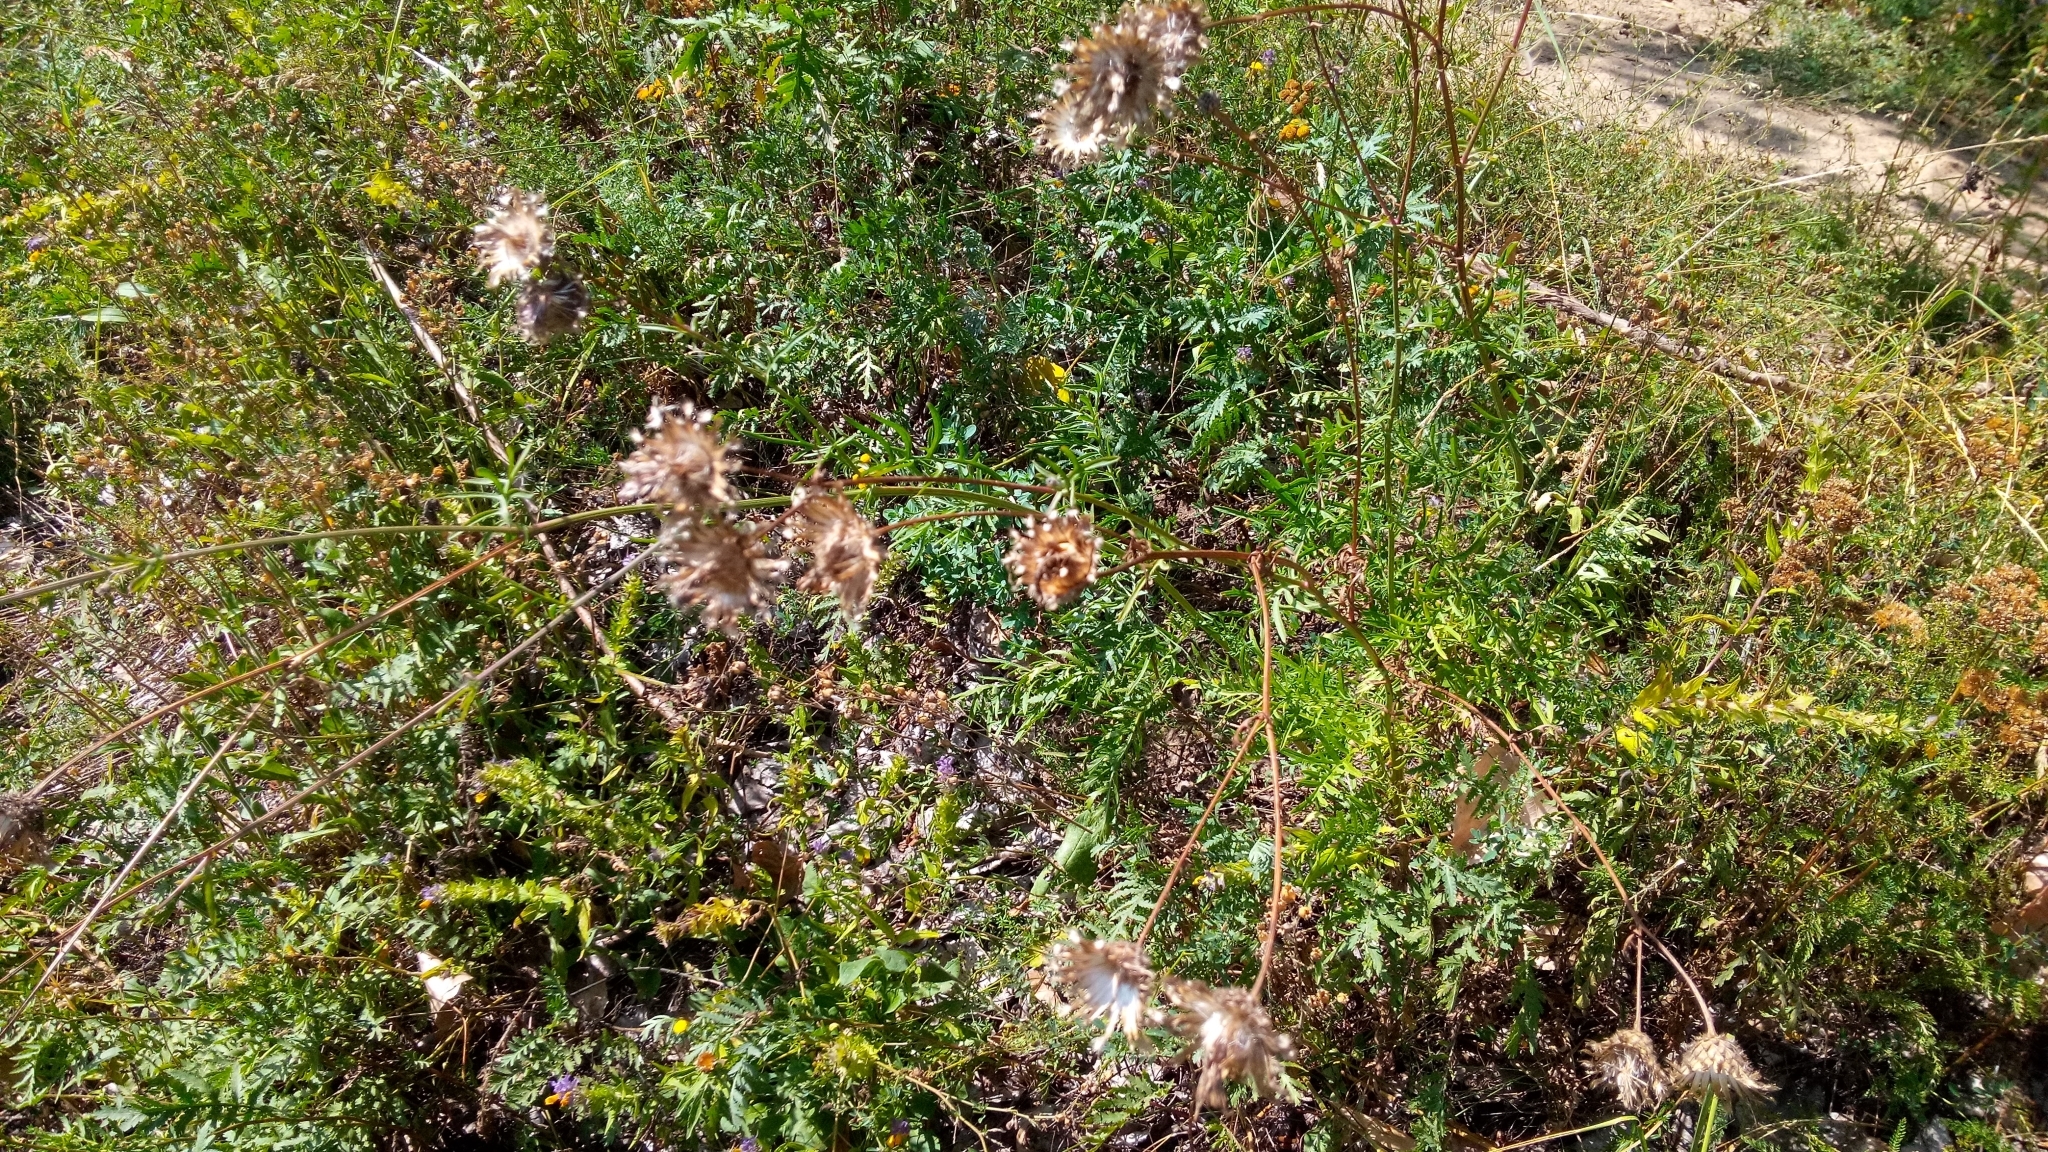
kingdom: Plantae
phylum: Tracheophyta
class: Magnoliopsida
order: Asterales
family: Asteraceae
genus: Centaurea
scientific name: Centaurea scabiosa
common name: Greater knapweed
